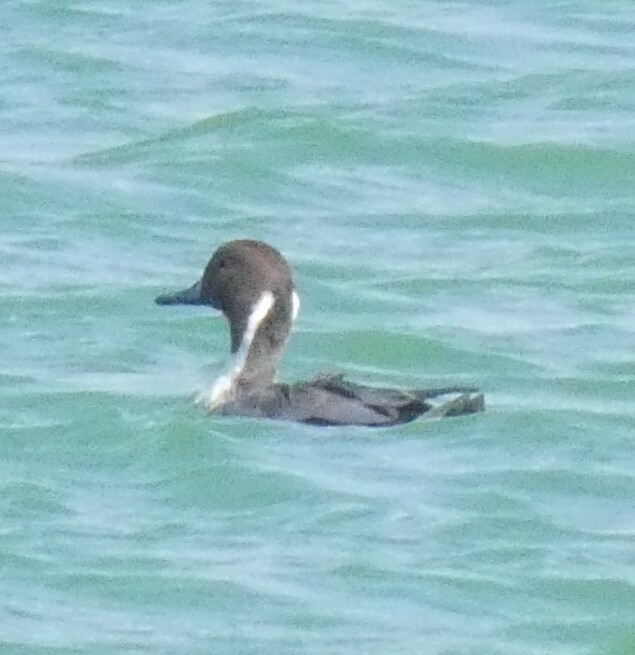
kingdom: Animalia
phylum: Chordata
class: Aves
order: Anseriformes
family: Anatidae
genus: Anas
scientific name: Anas acuta
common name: Northern pintail
